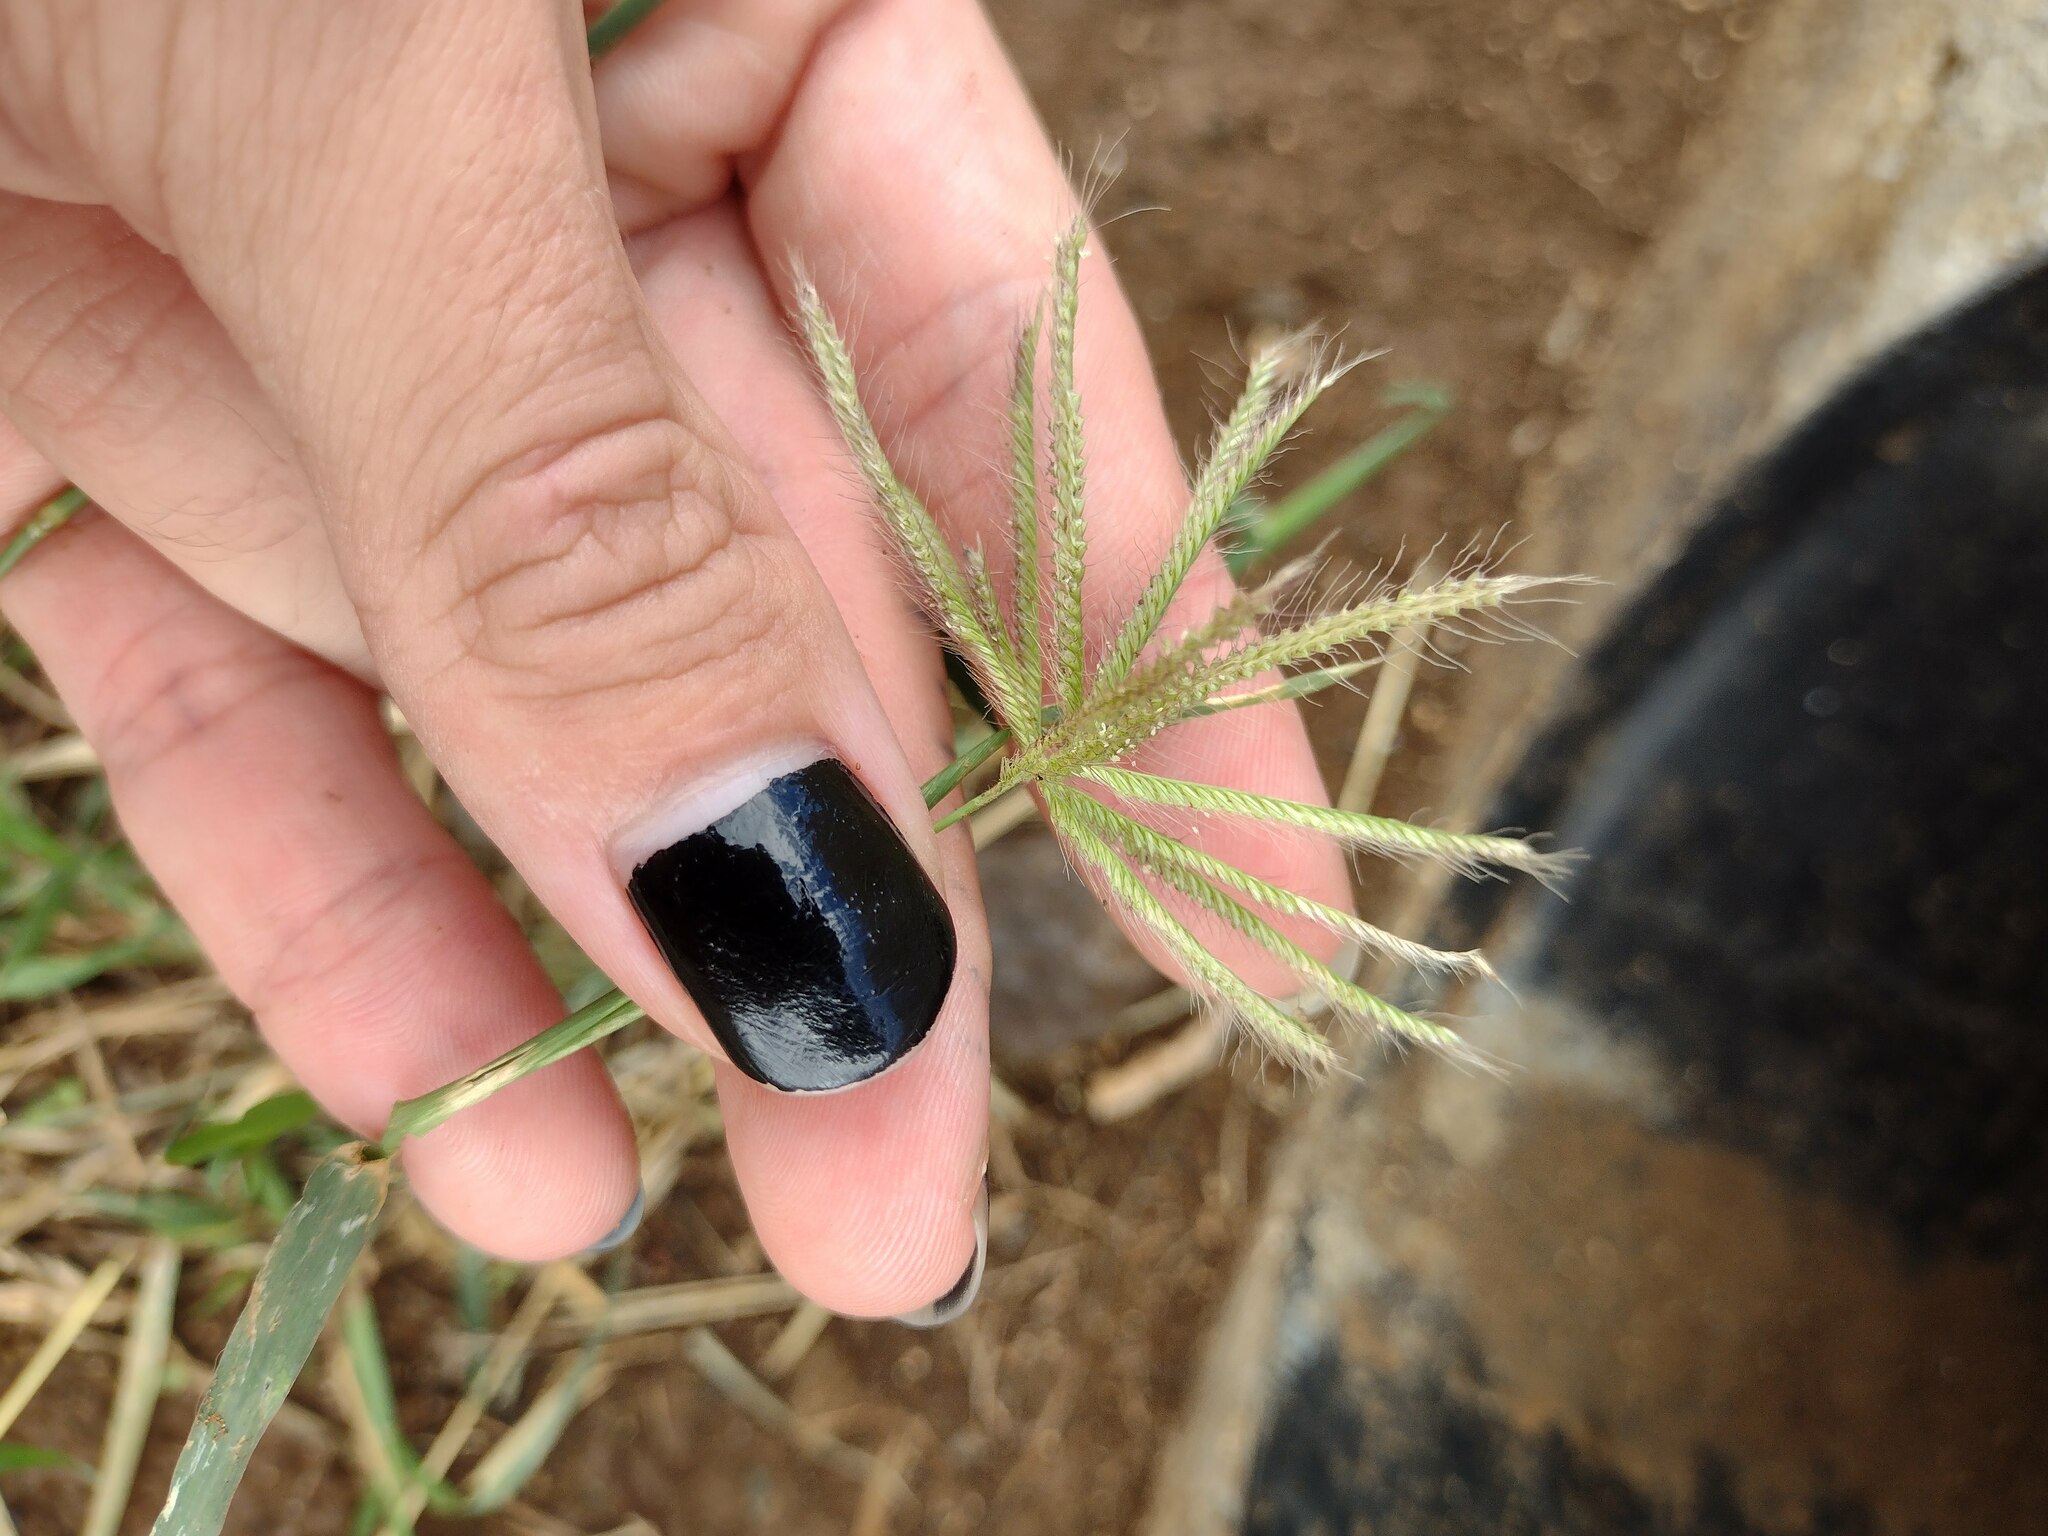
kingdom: Plantae
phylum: Tracheophyta
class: Liliopsida
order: Poales
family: Poaceae
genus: Chloris
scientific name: Chloris barbata
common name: Swollen fingergrass
